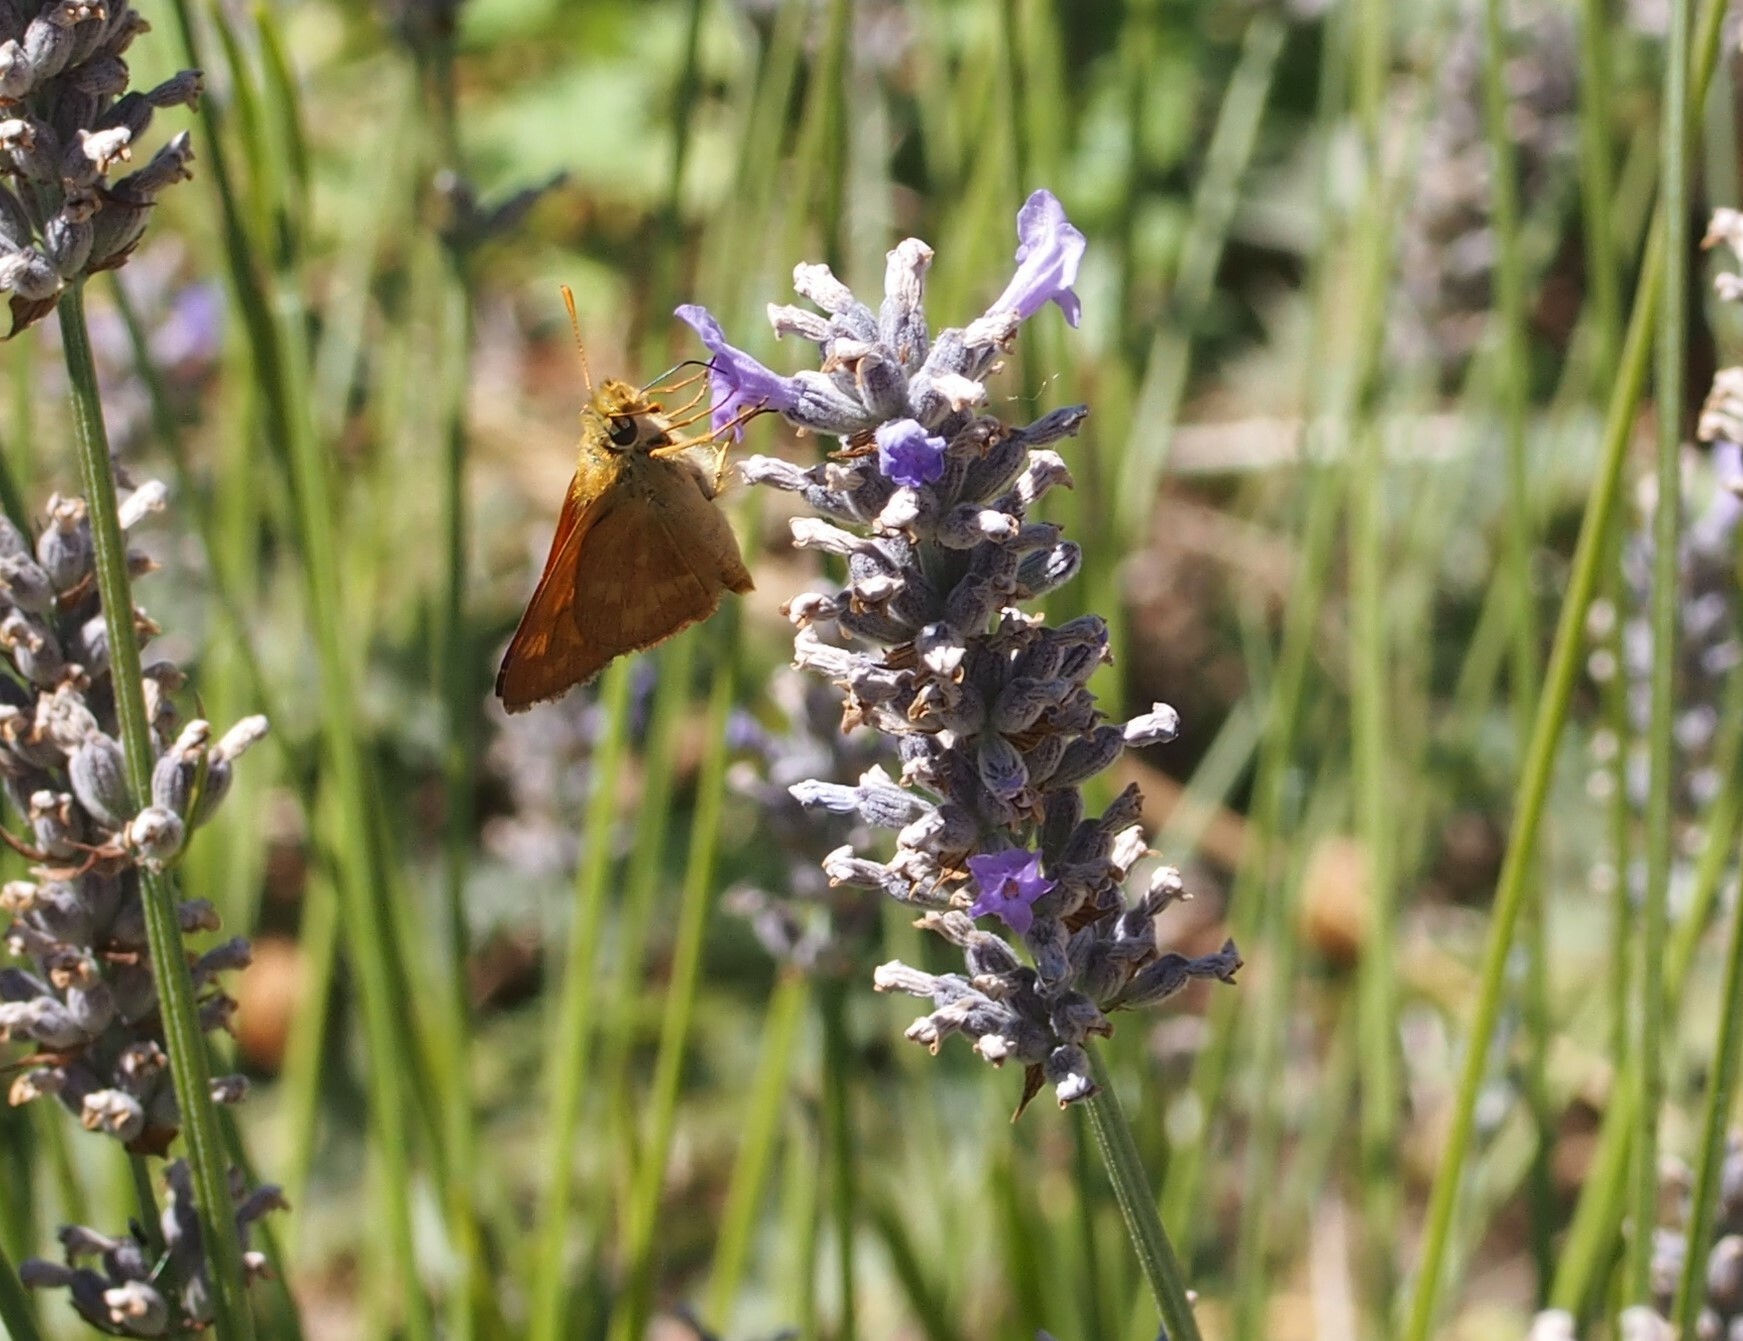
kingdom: Animalia
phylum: Arthropoda
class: Insecta
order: Lepidoptera
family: Hesperiidae
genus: Ochlodes
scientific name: Ochlodes sylvanoides
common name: Woodland skipper
